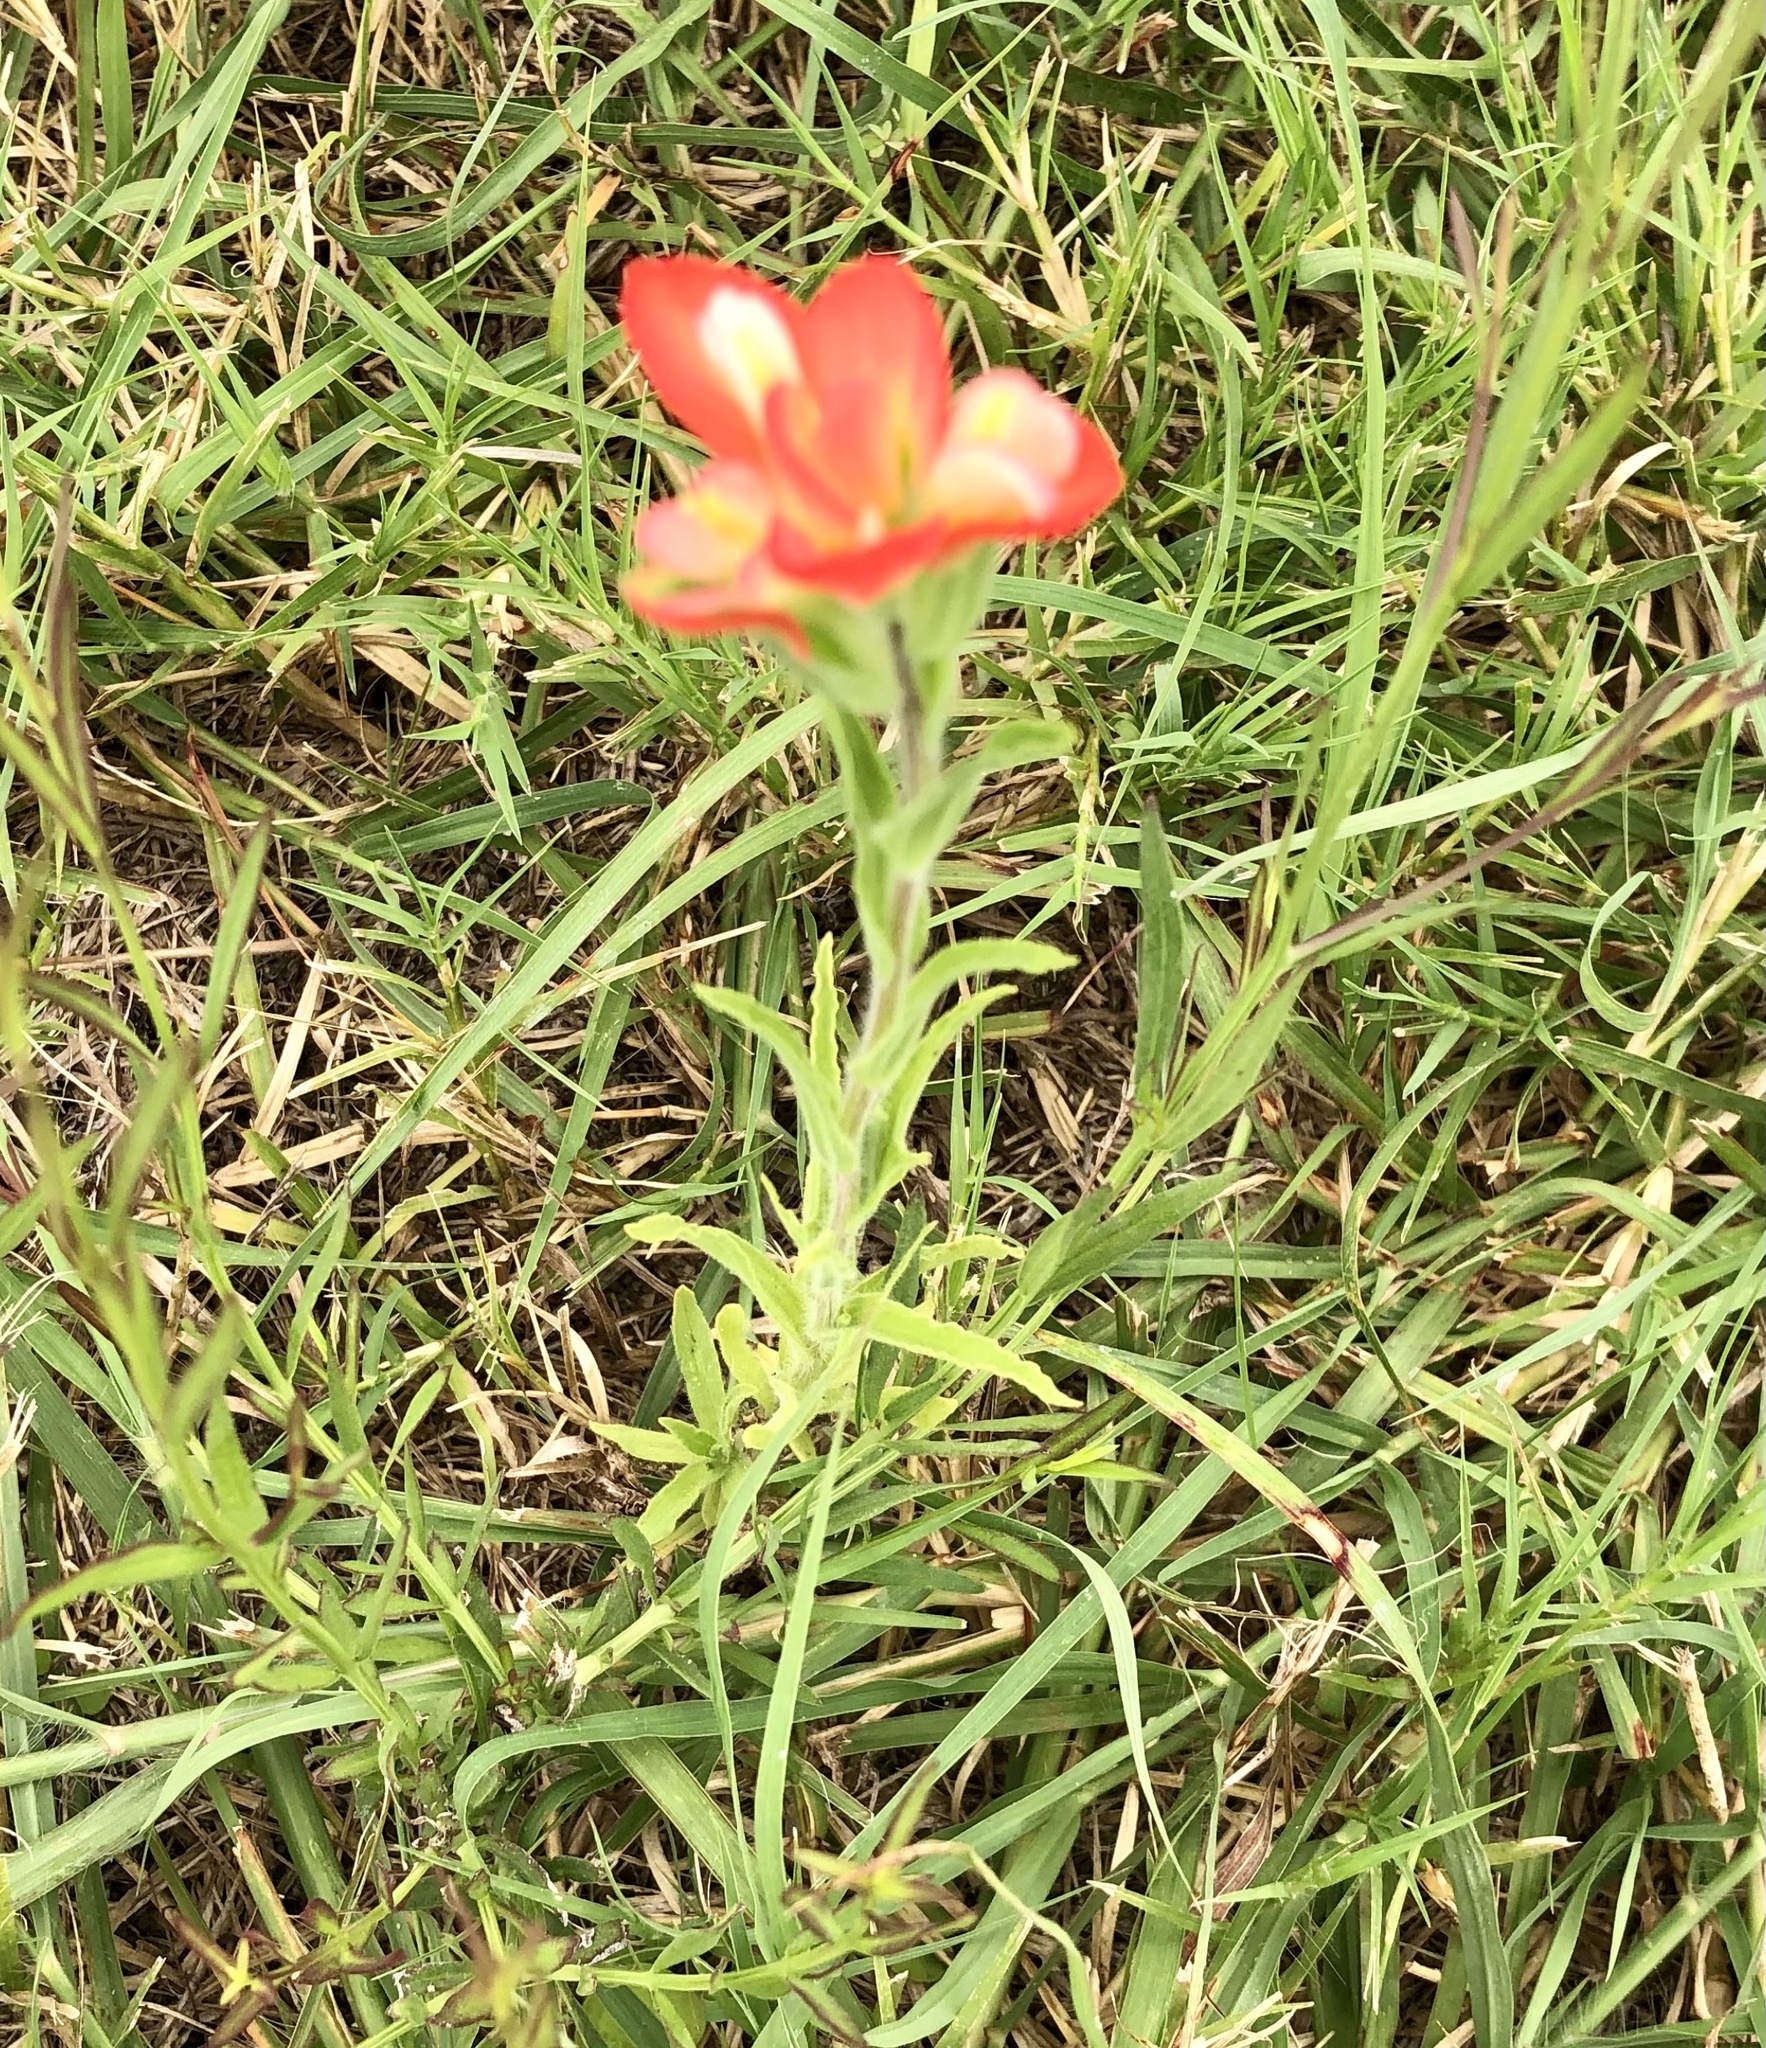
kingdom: Plantae
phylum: Tracheophyta
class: Magnoliopsida
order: Lamiales
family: Orobanchaceae
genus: Castilleja
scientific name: Castilleja indivisa
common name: Texas paintbrush
